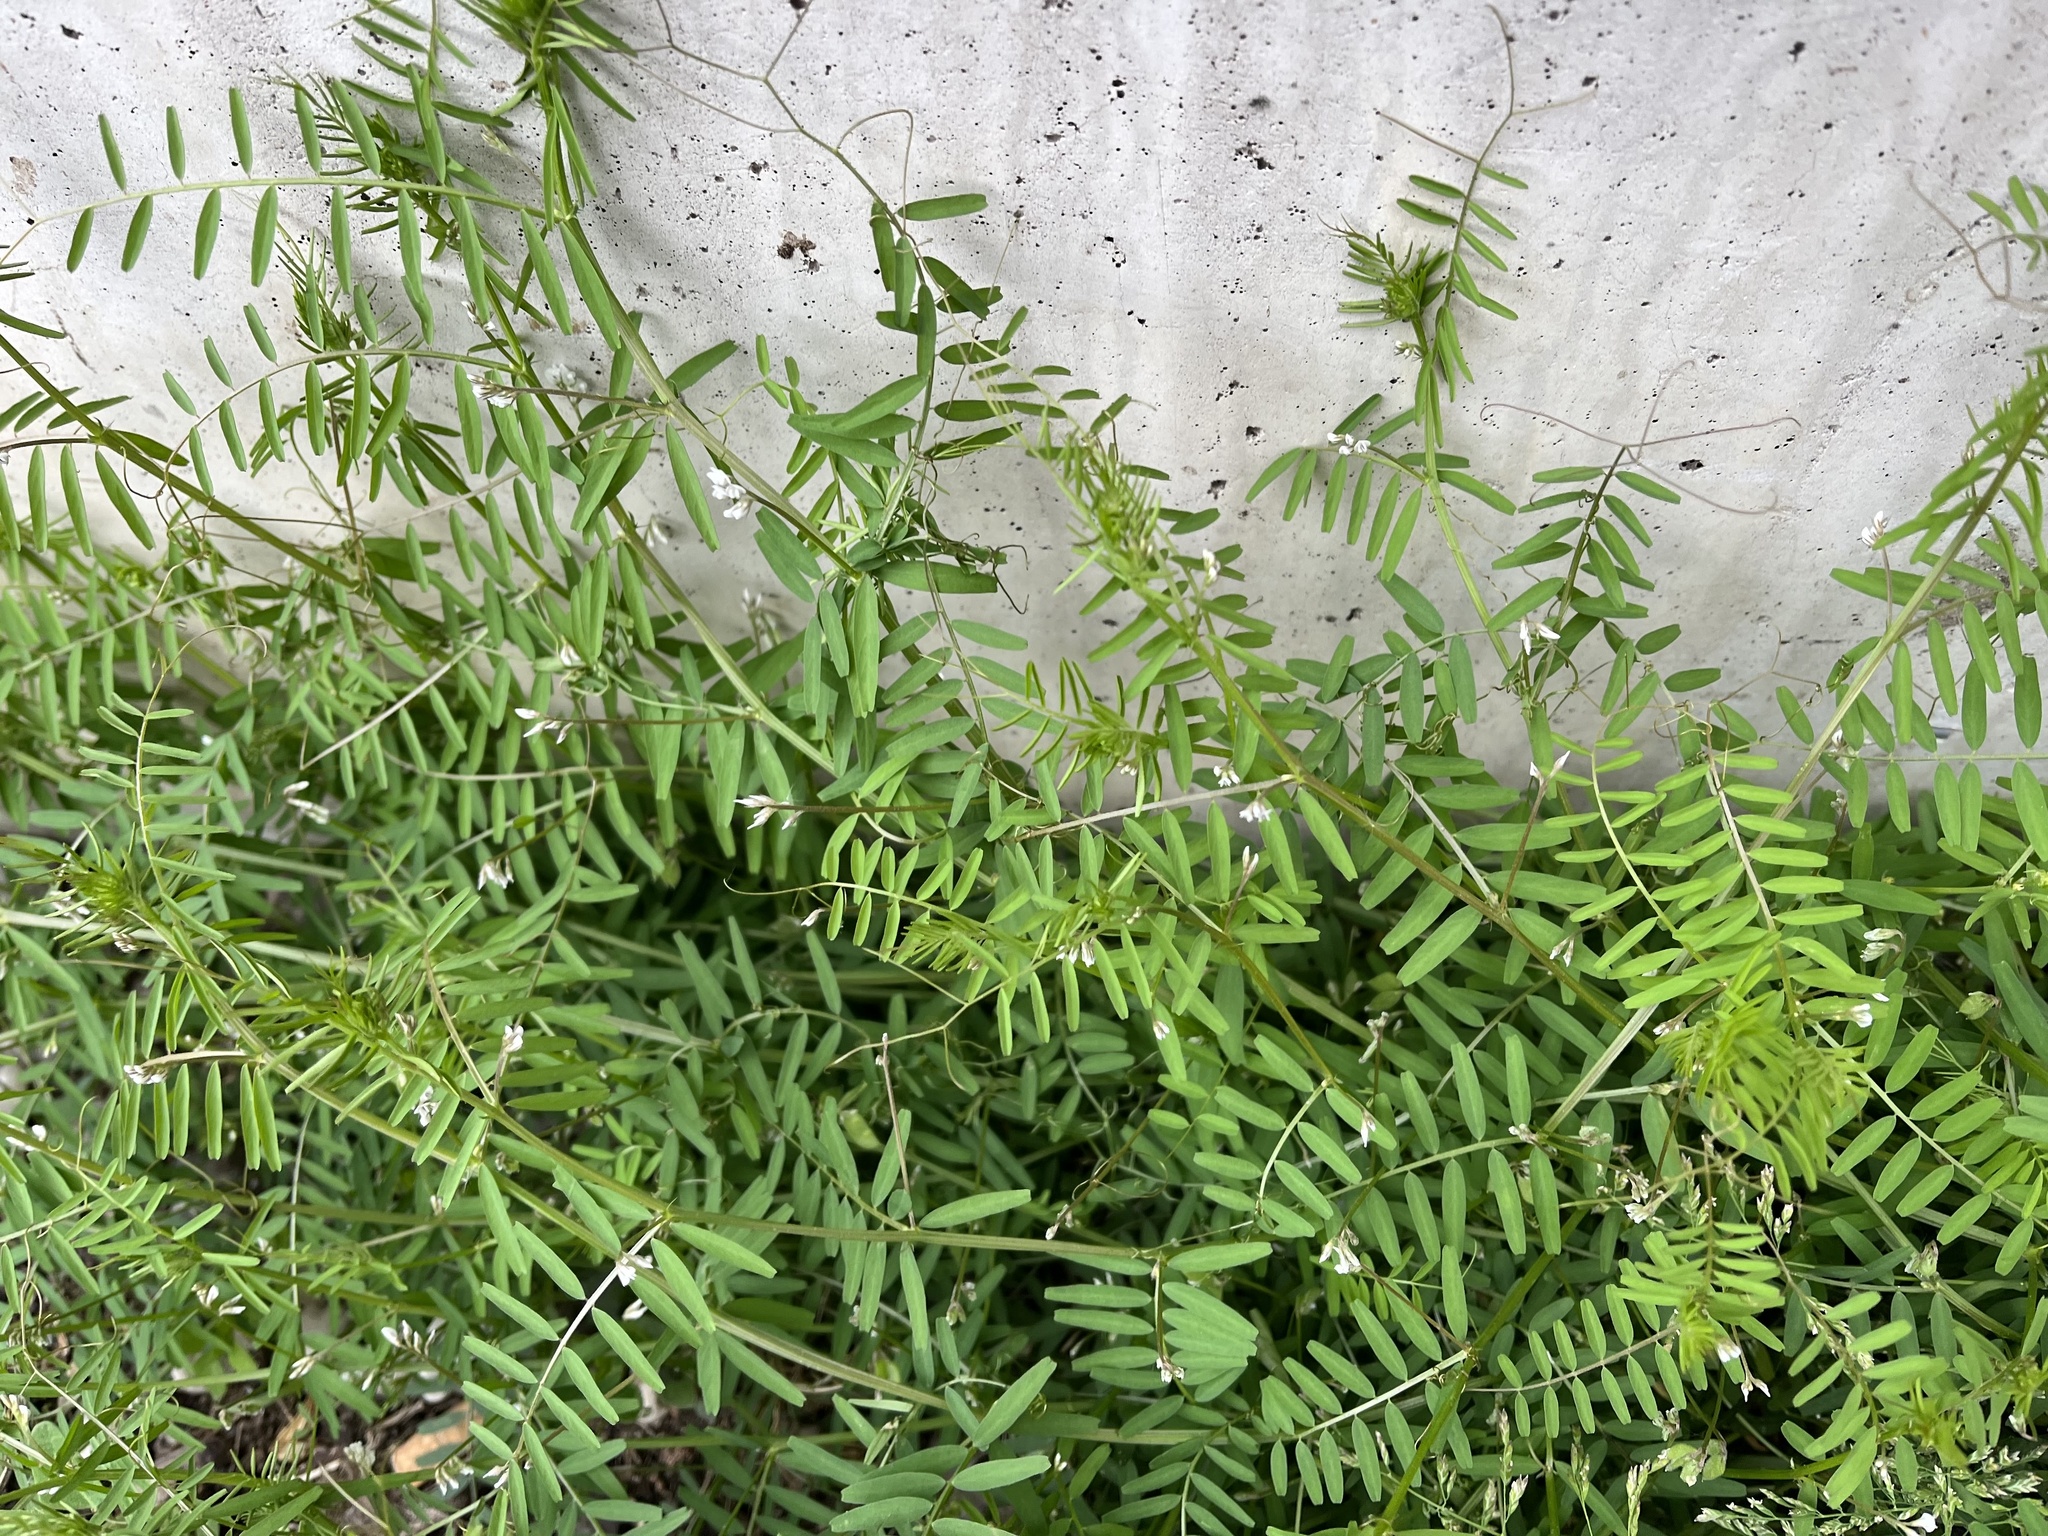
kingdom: Plantae
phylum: Tracheophyta
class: Magnoliopsida
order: Fabales
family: Fabaceae
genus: Vicia
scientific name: Vicia hirsuta
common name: Tiny vetch
